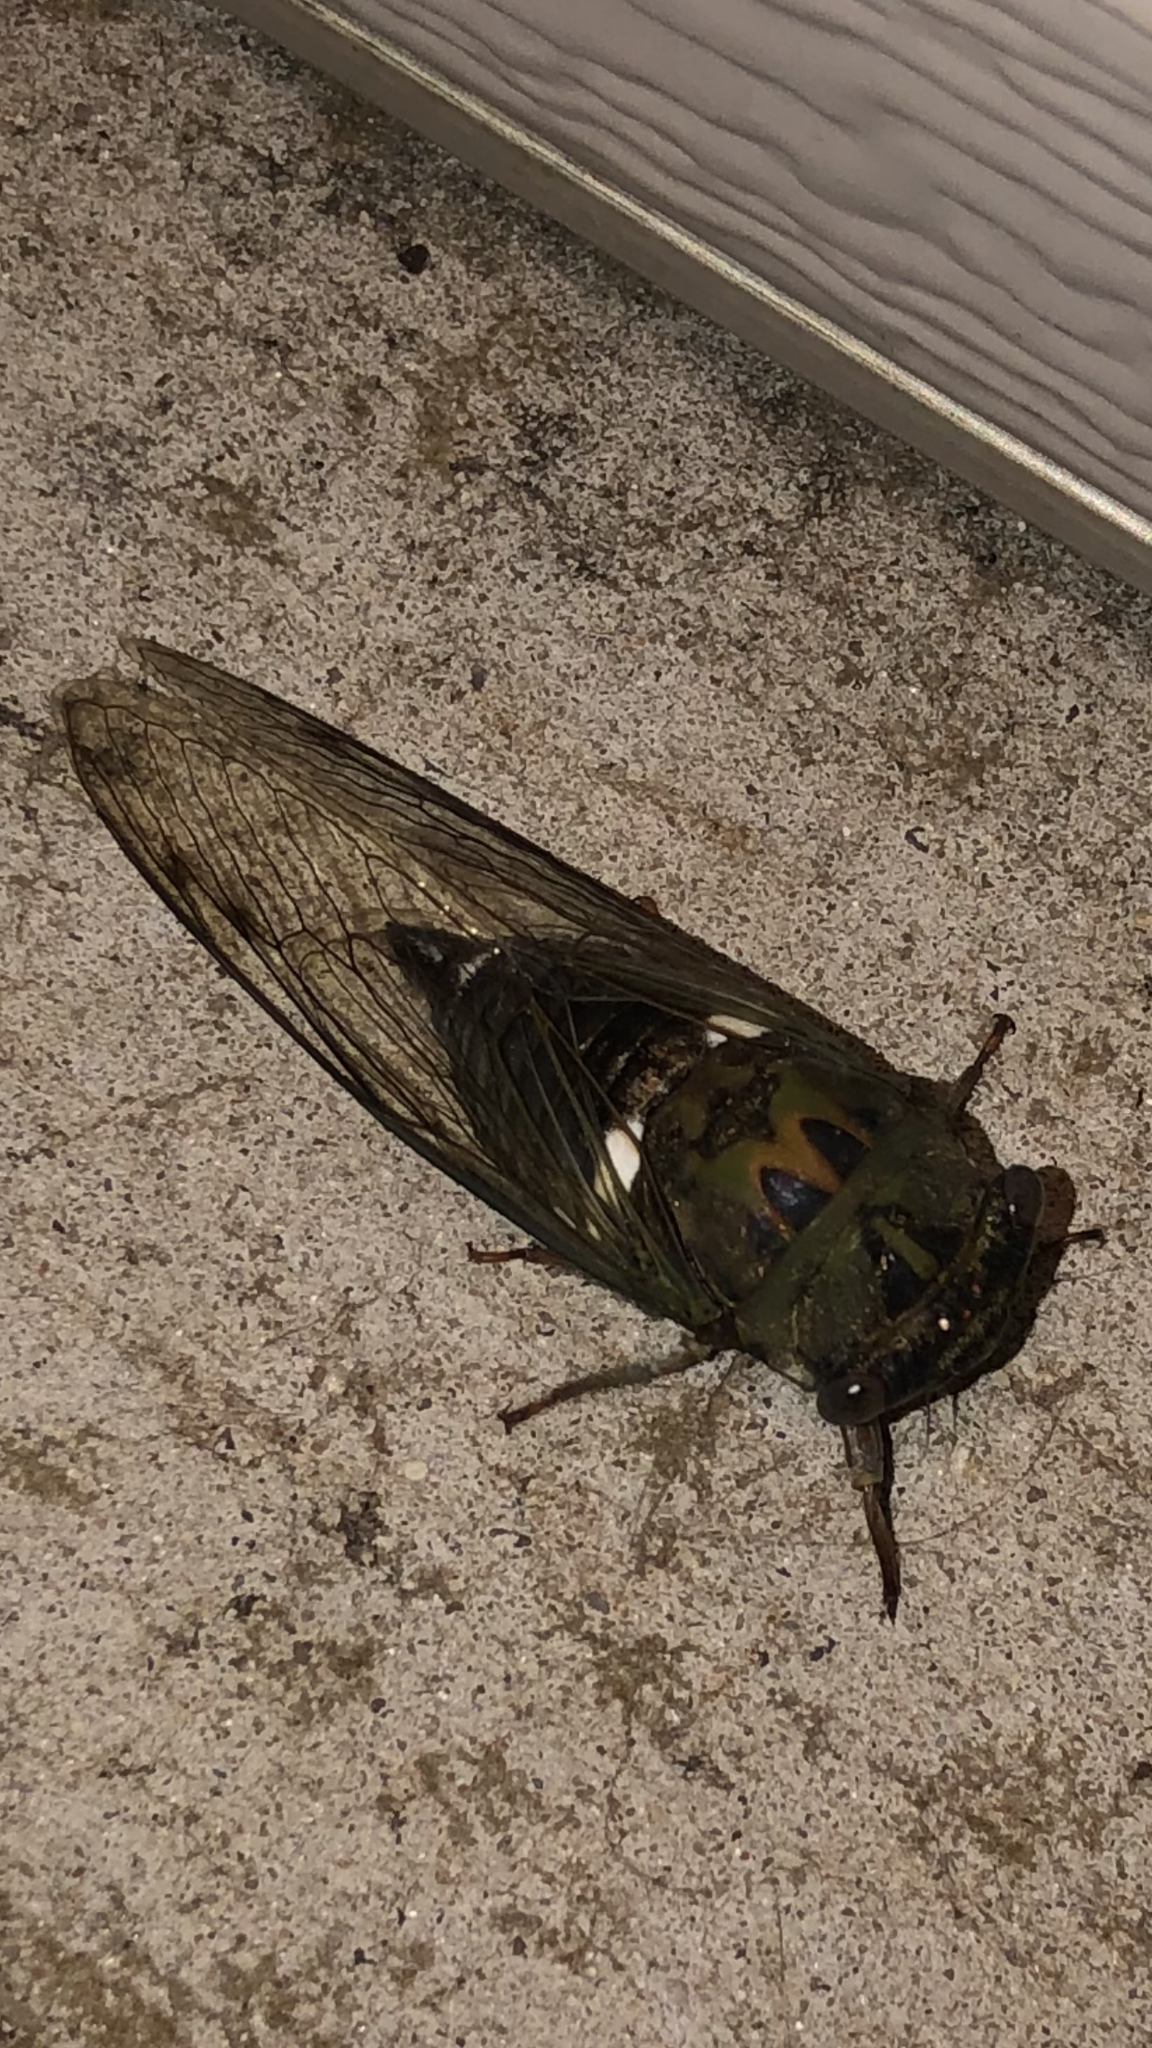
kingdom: Animalia
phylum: Arthropoda
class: Insecta
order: Hemiptera
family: Cicadidae
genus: Neotibicen
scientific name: Neotibicen pruinosus
